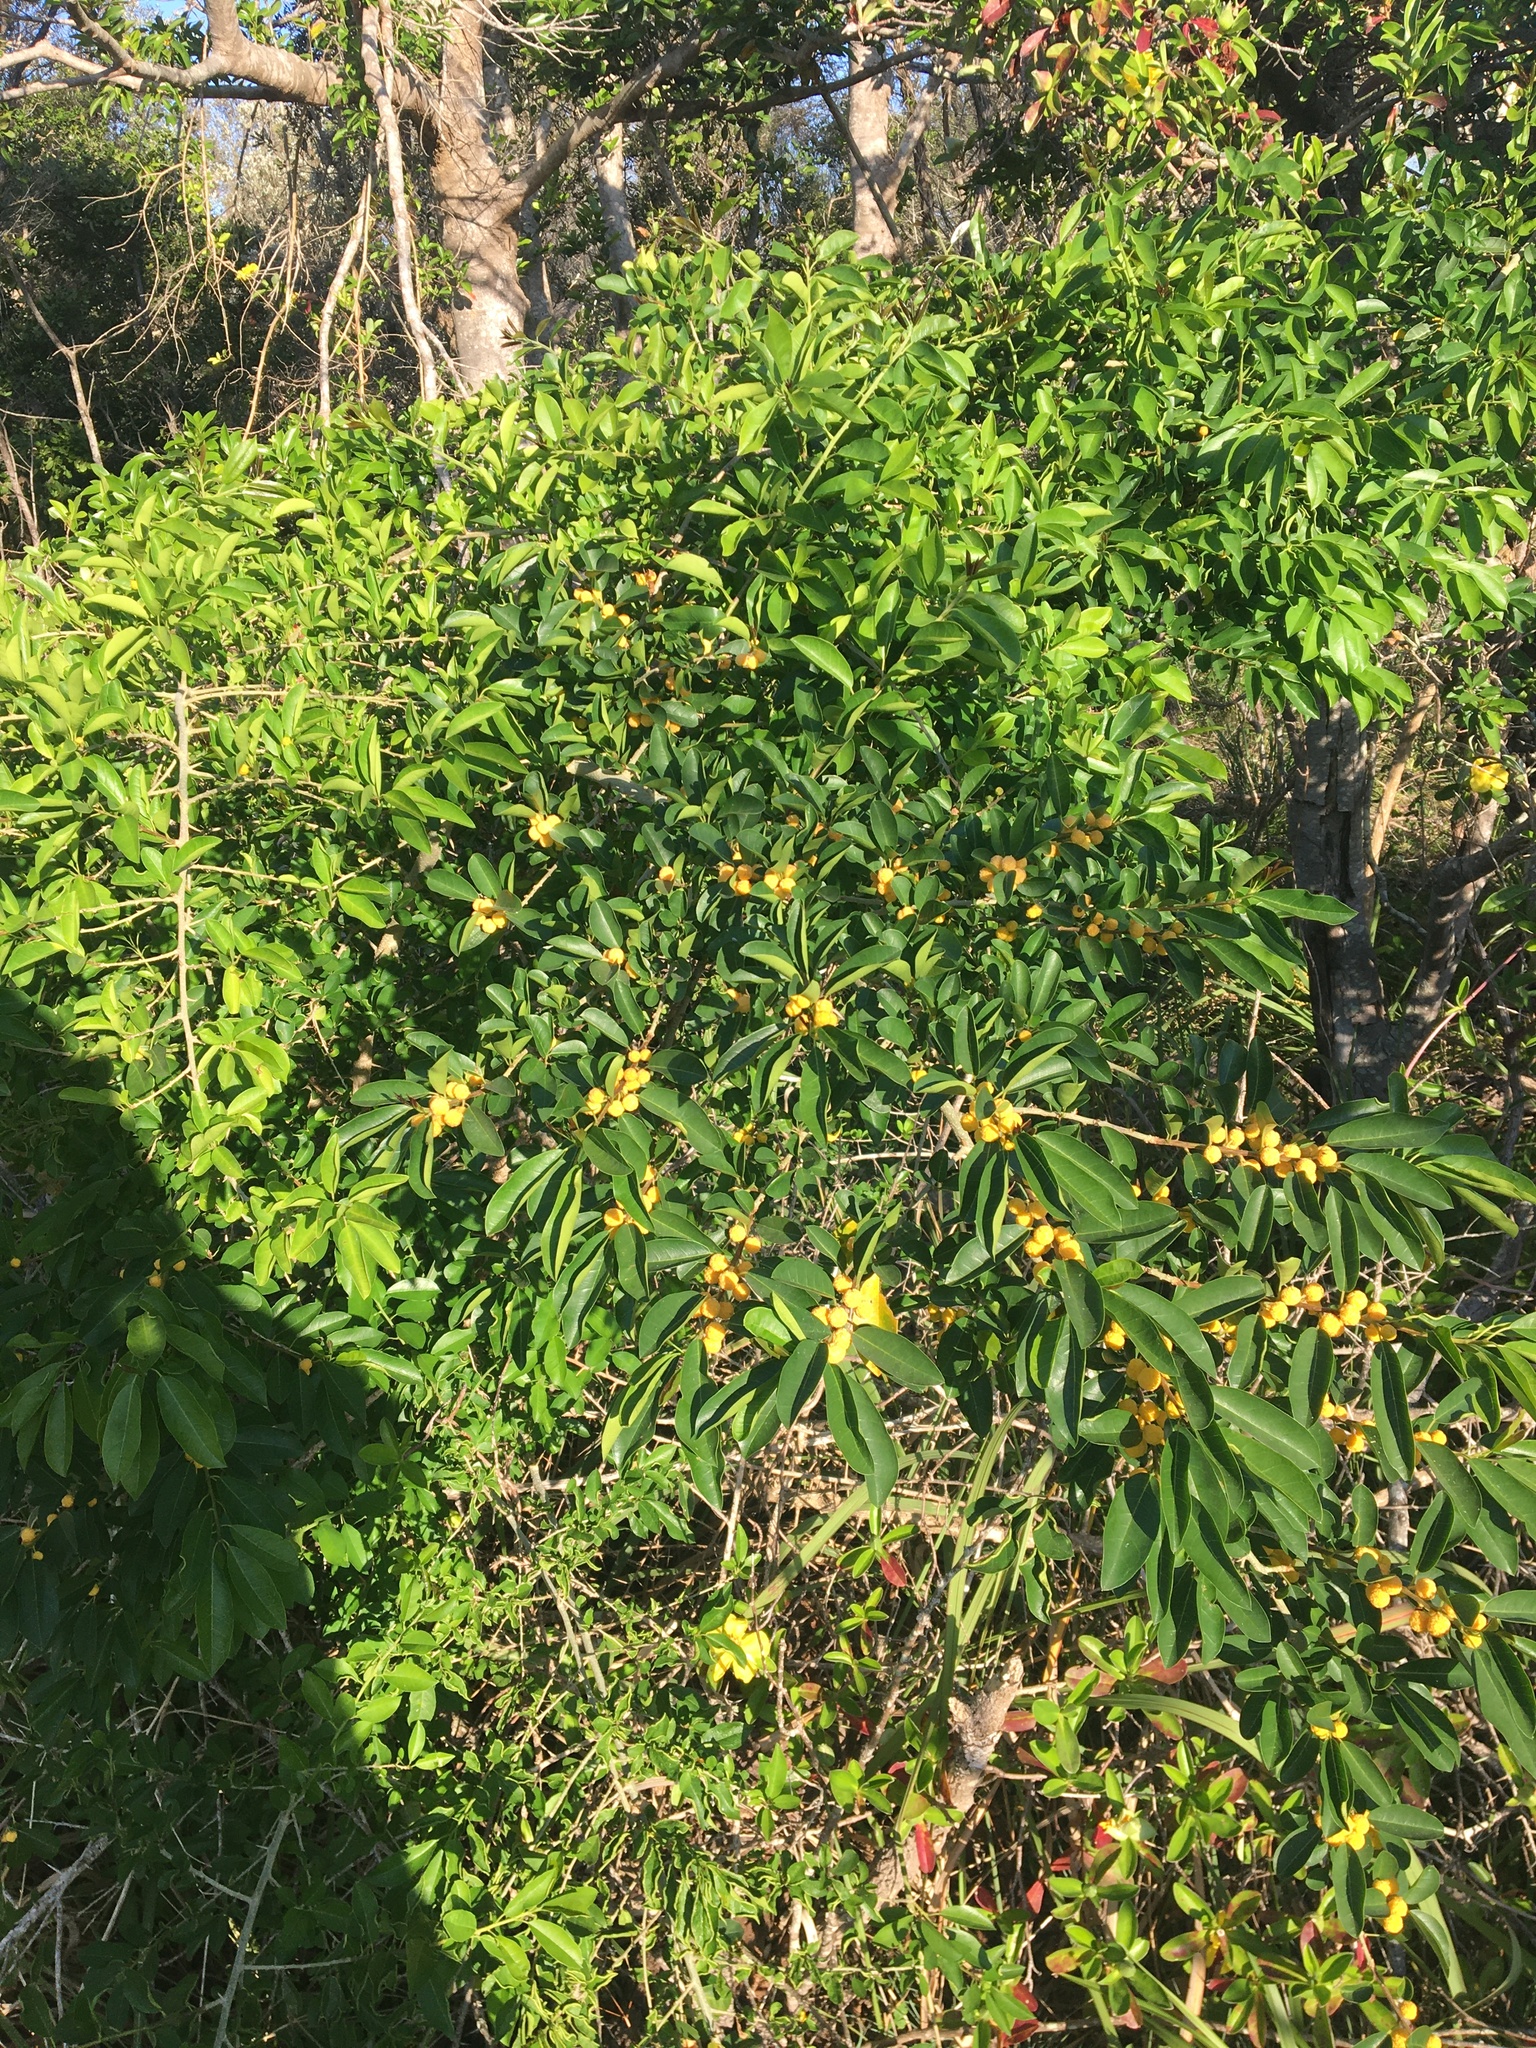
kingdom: Plantae
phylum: Tracheophyta
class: Magnoliopsida
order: Rosales
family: Moraceae
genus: Maclura
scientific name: Maclura cochinchinensis
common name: Cockspurthorn
